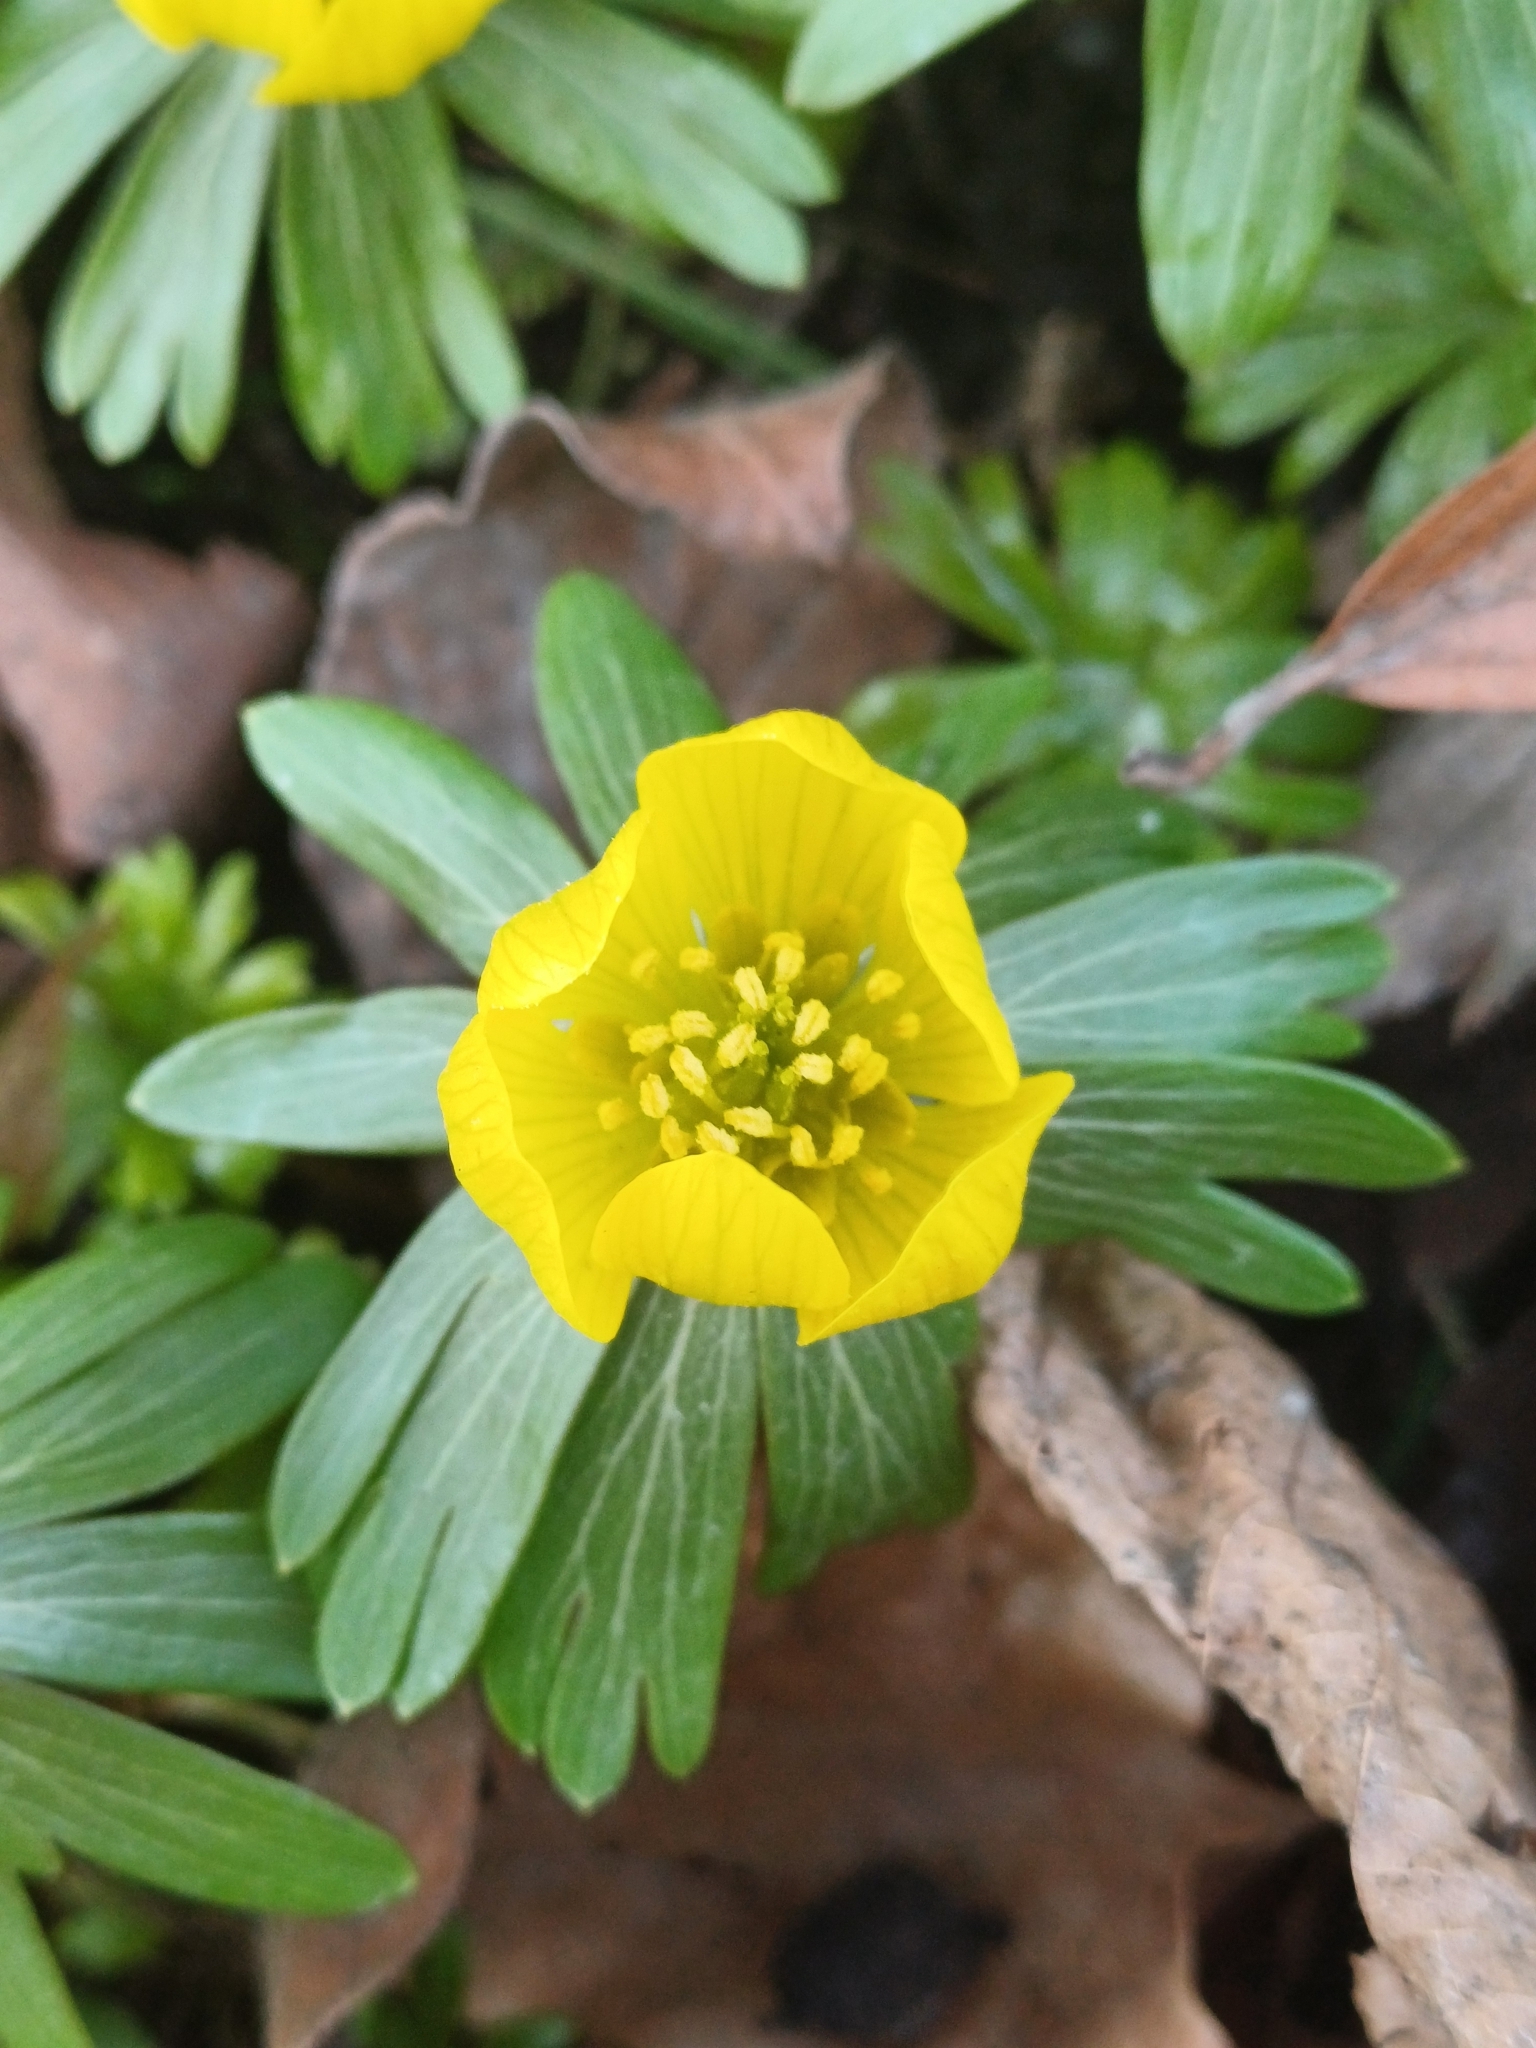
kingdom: Plantae
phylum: Tracheophyta
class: Magnoliopsida
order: Ranunculales
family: Ranunculaceae
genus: Eranthis
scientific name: Eranthis hyemalis
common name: Winter aconite
